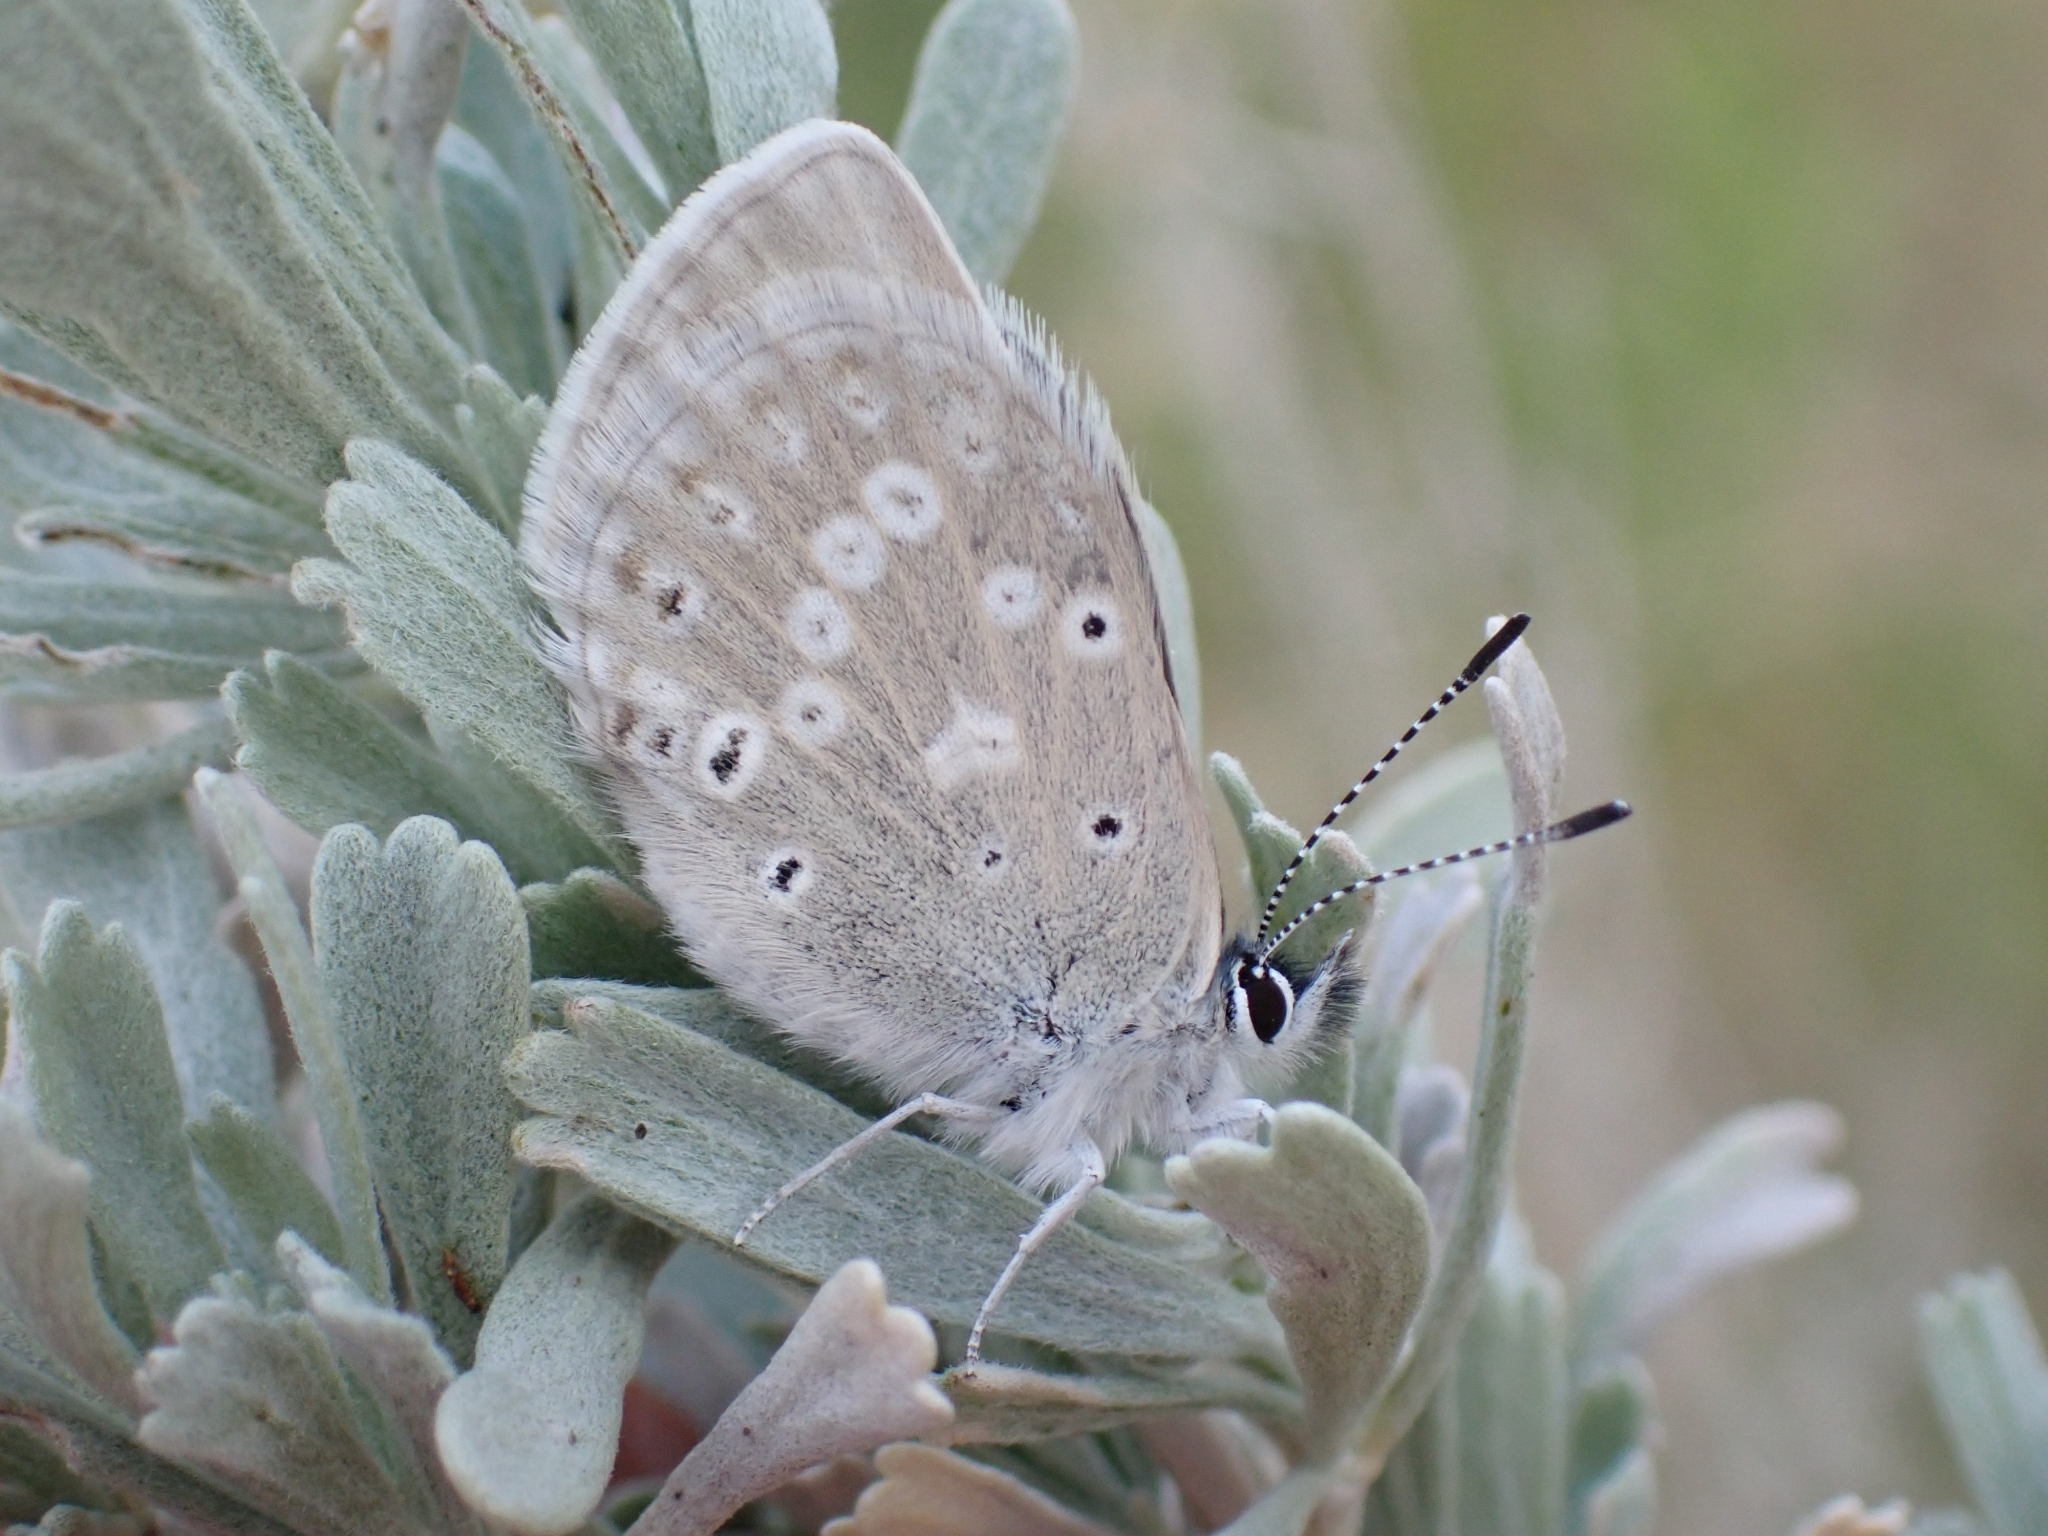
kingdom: Animalia
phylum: Arthropoda
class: Insecta
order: Lepidoptera
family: Lycaenidae
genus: Icaricia
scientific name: Icaricia icarioides
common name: Boisduval's blue
